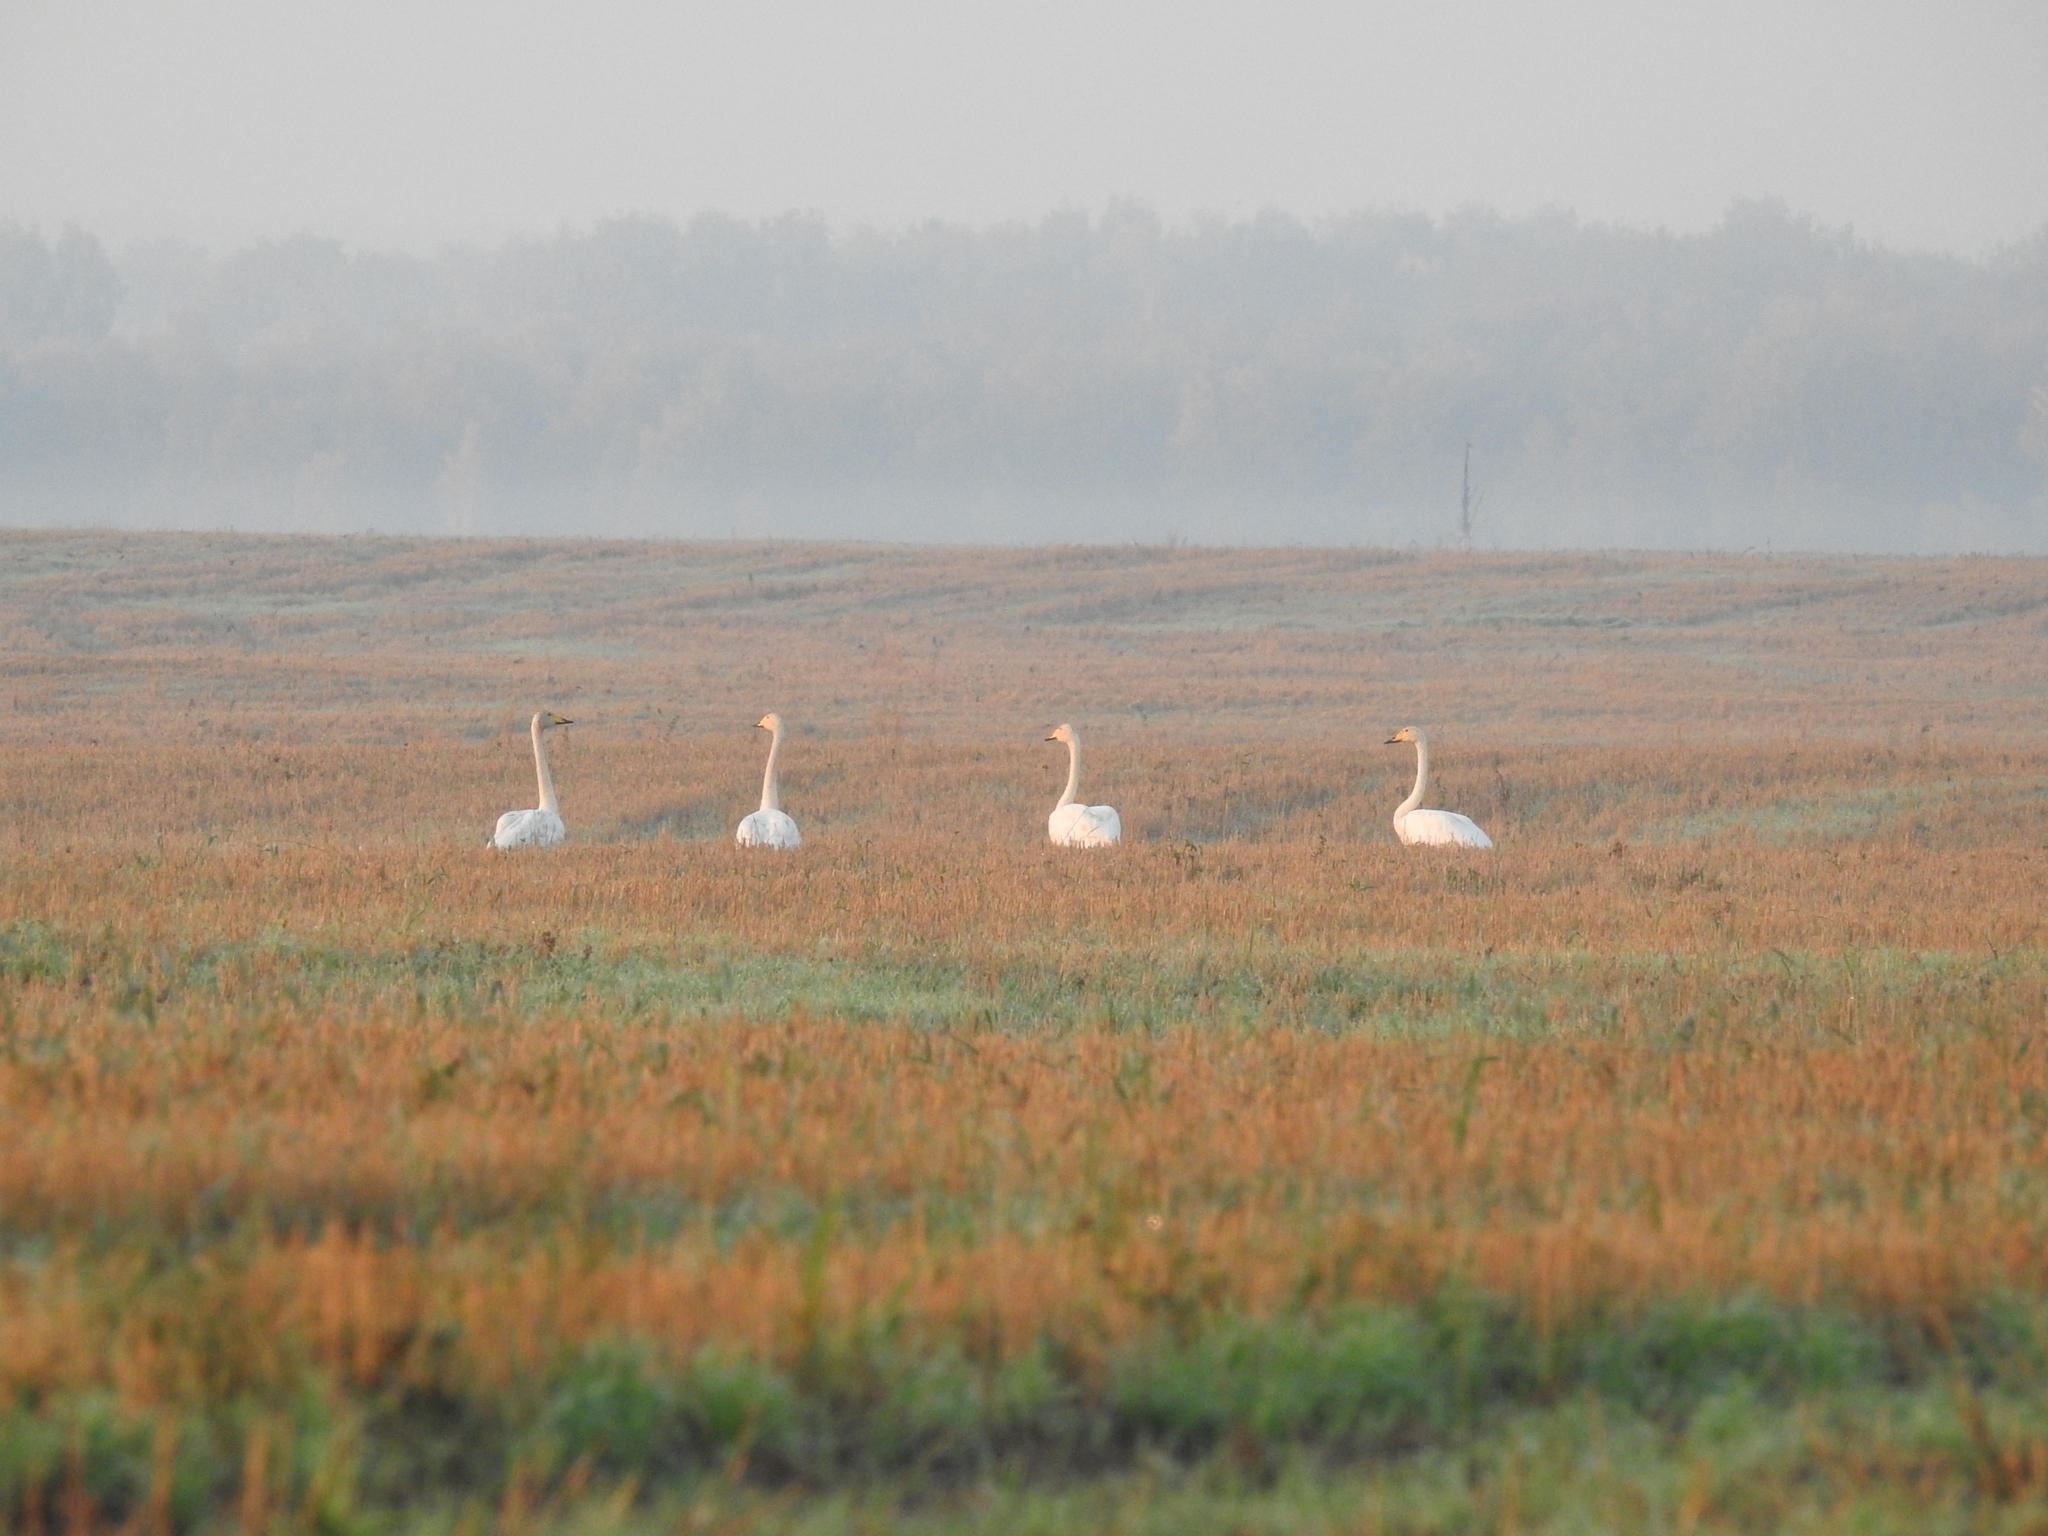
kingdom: Animalia
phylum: Chordata
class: Aves
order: Anseriformes
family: Anatidae
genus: Cygnus
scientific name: Cygnus cygnus
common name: Whooper swan
